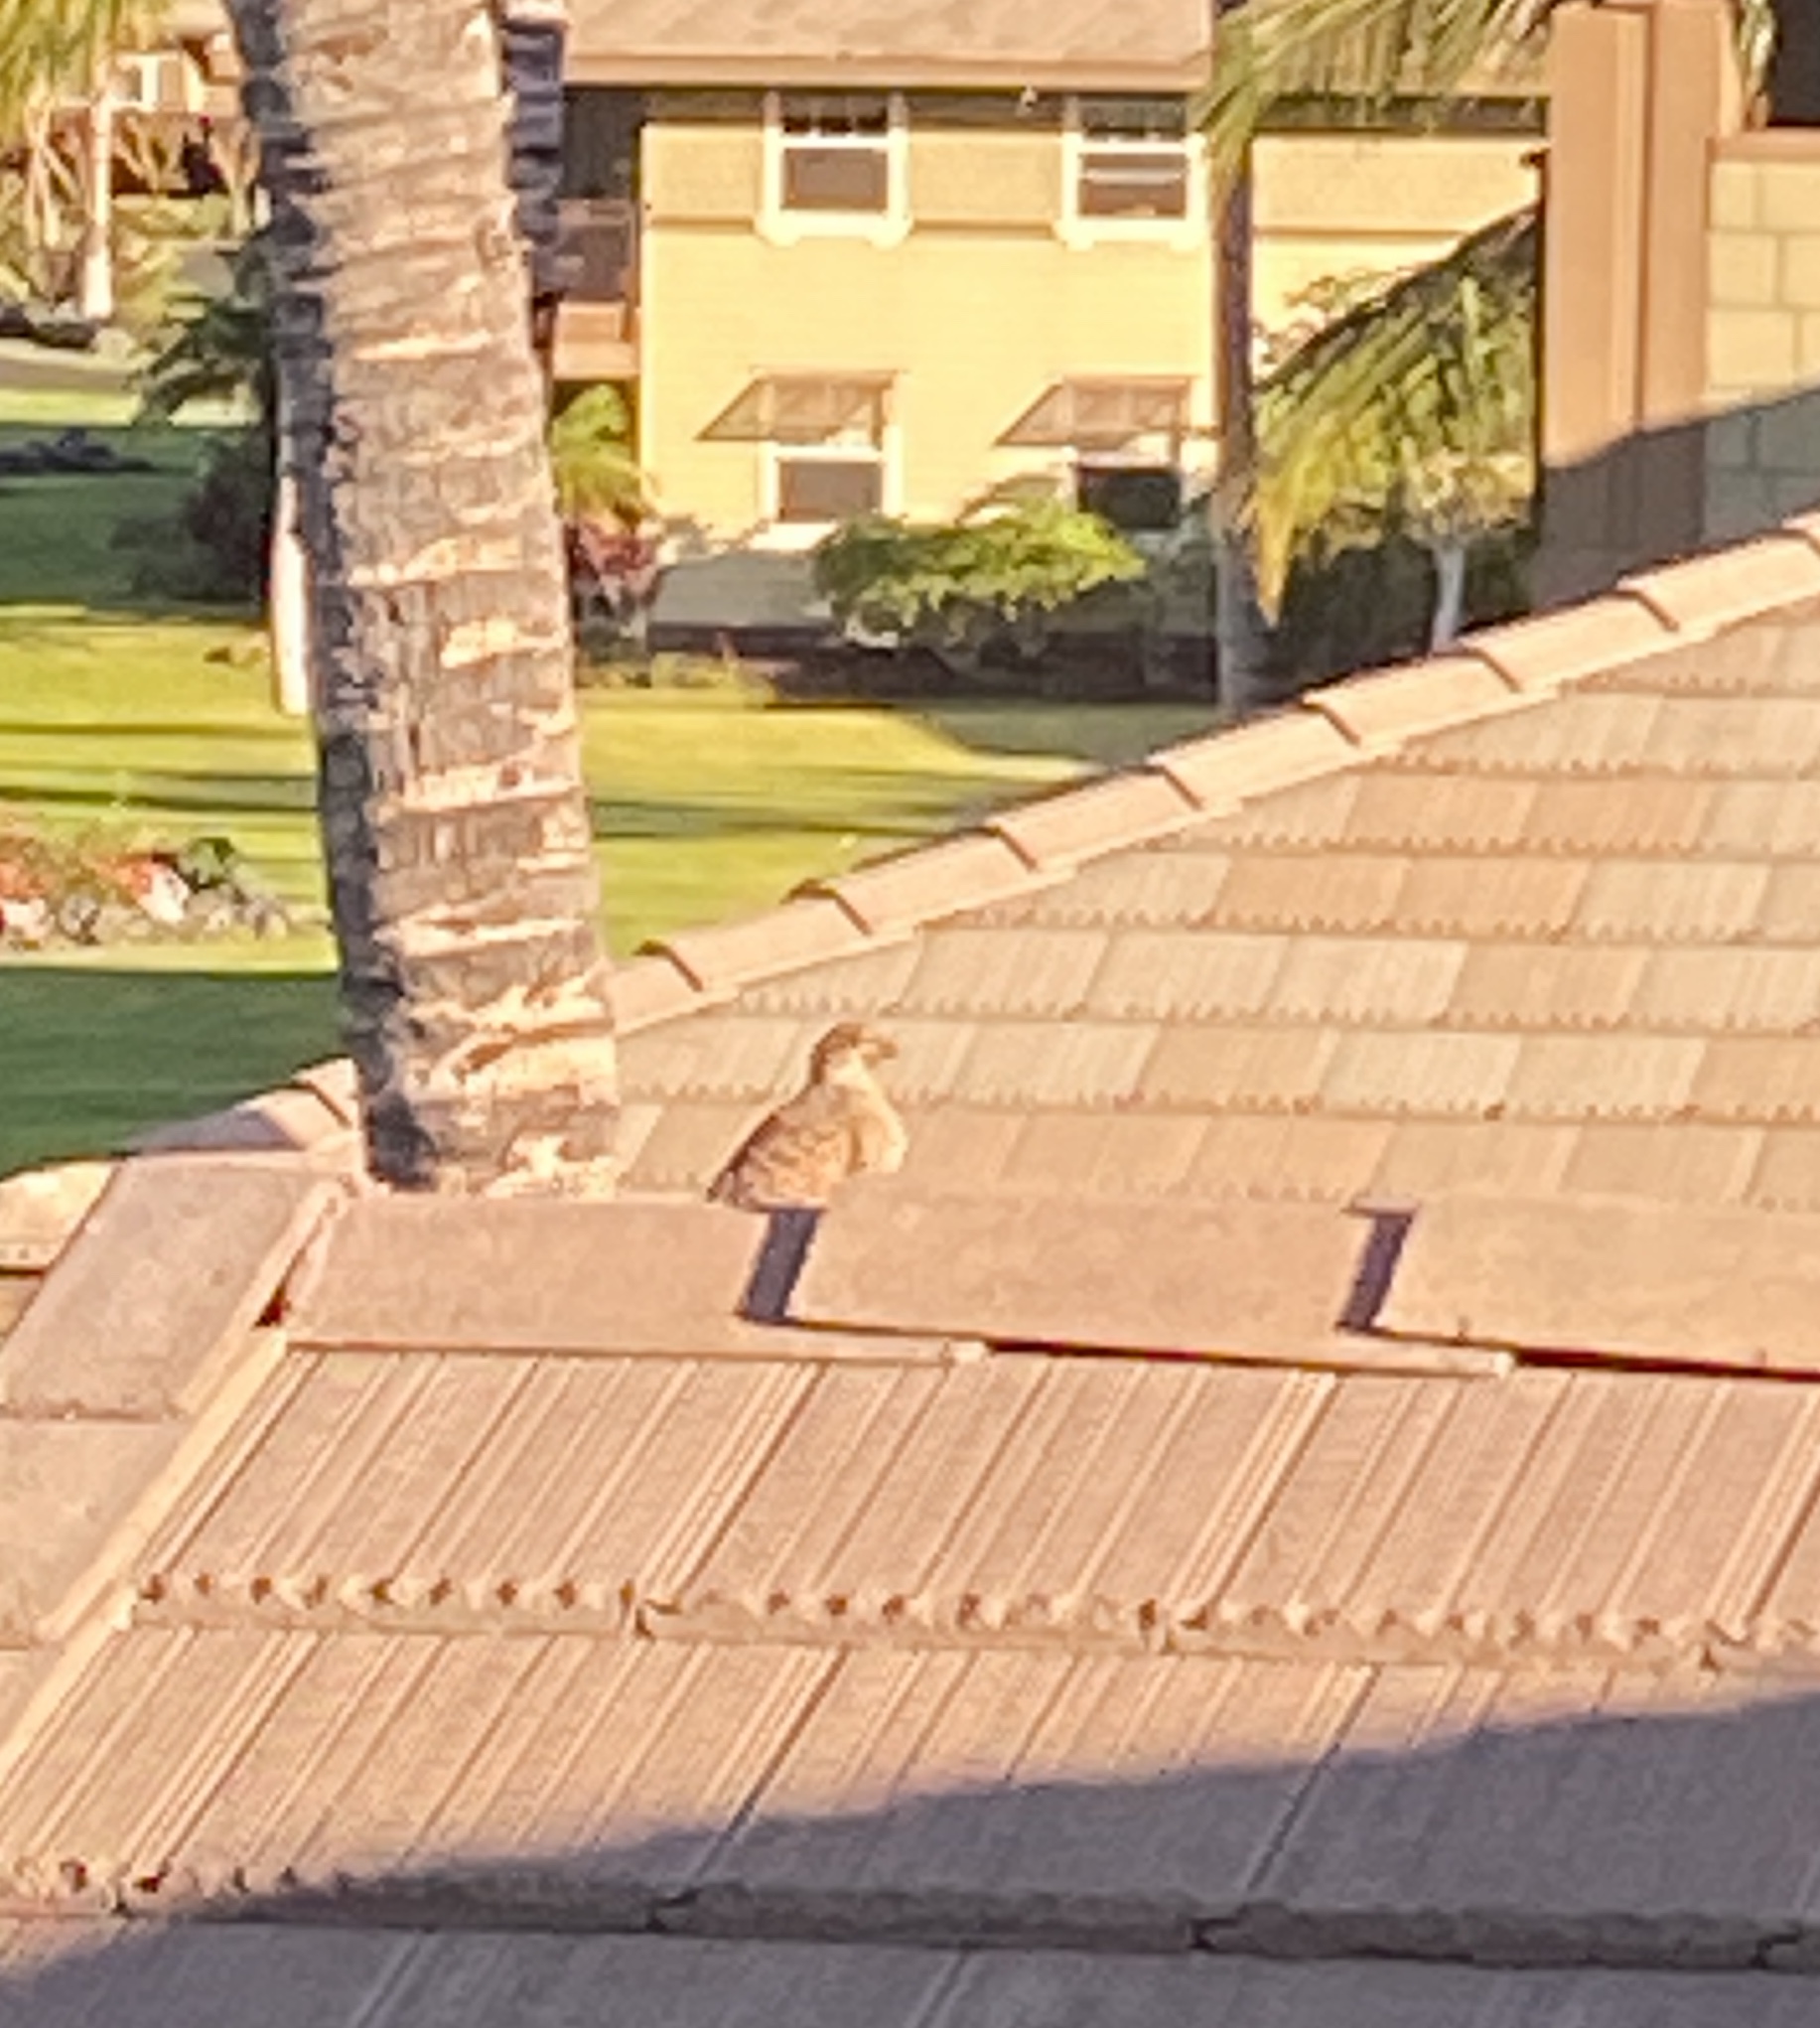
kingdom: Animalia
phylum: Chordata
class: Aves
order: Galliformes
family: Phasianidae
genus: Ortygornis
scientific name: Ortygornis pondicerianus
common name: Grey francolin
